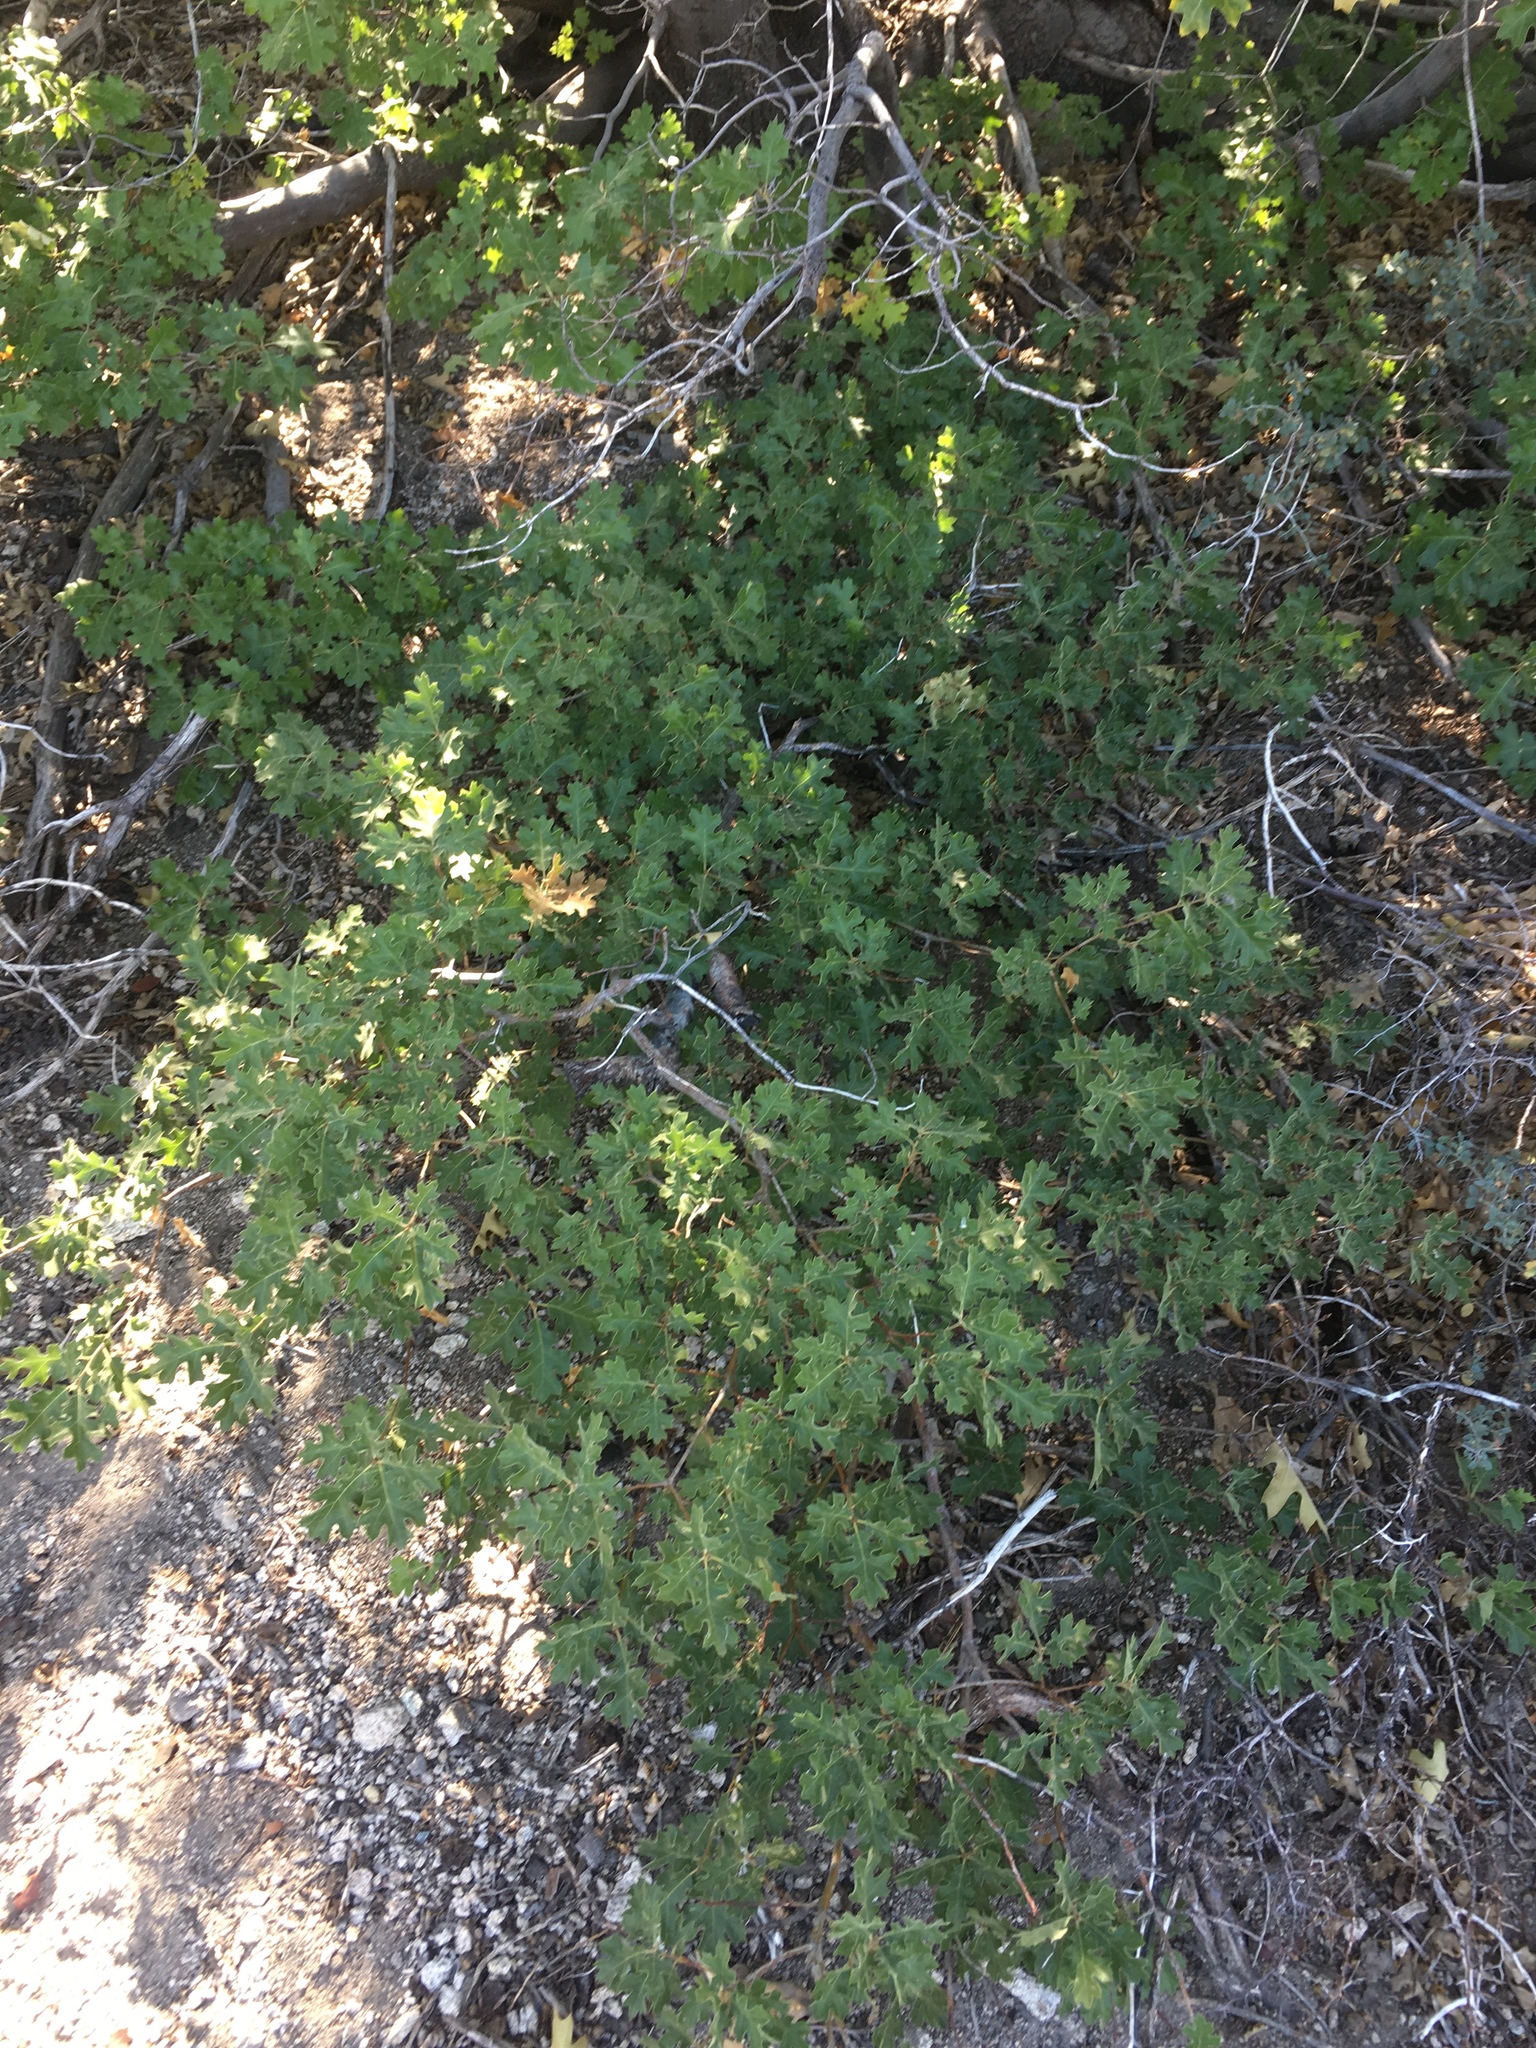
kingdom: Plantae
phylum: Tracheophyta
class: Magnoliopsida
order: Fagales
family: Fagaceae
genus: Quercus
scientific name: Quercus kelloggii
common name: California black oak
